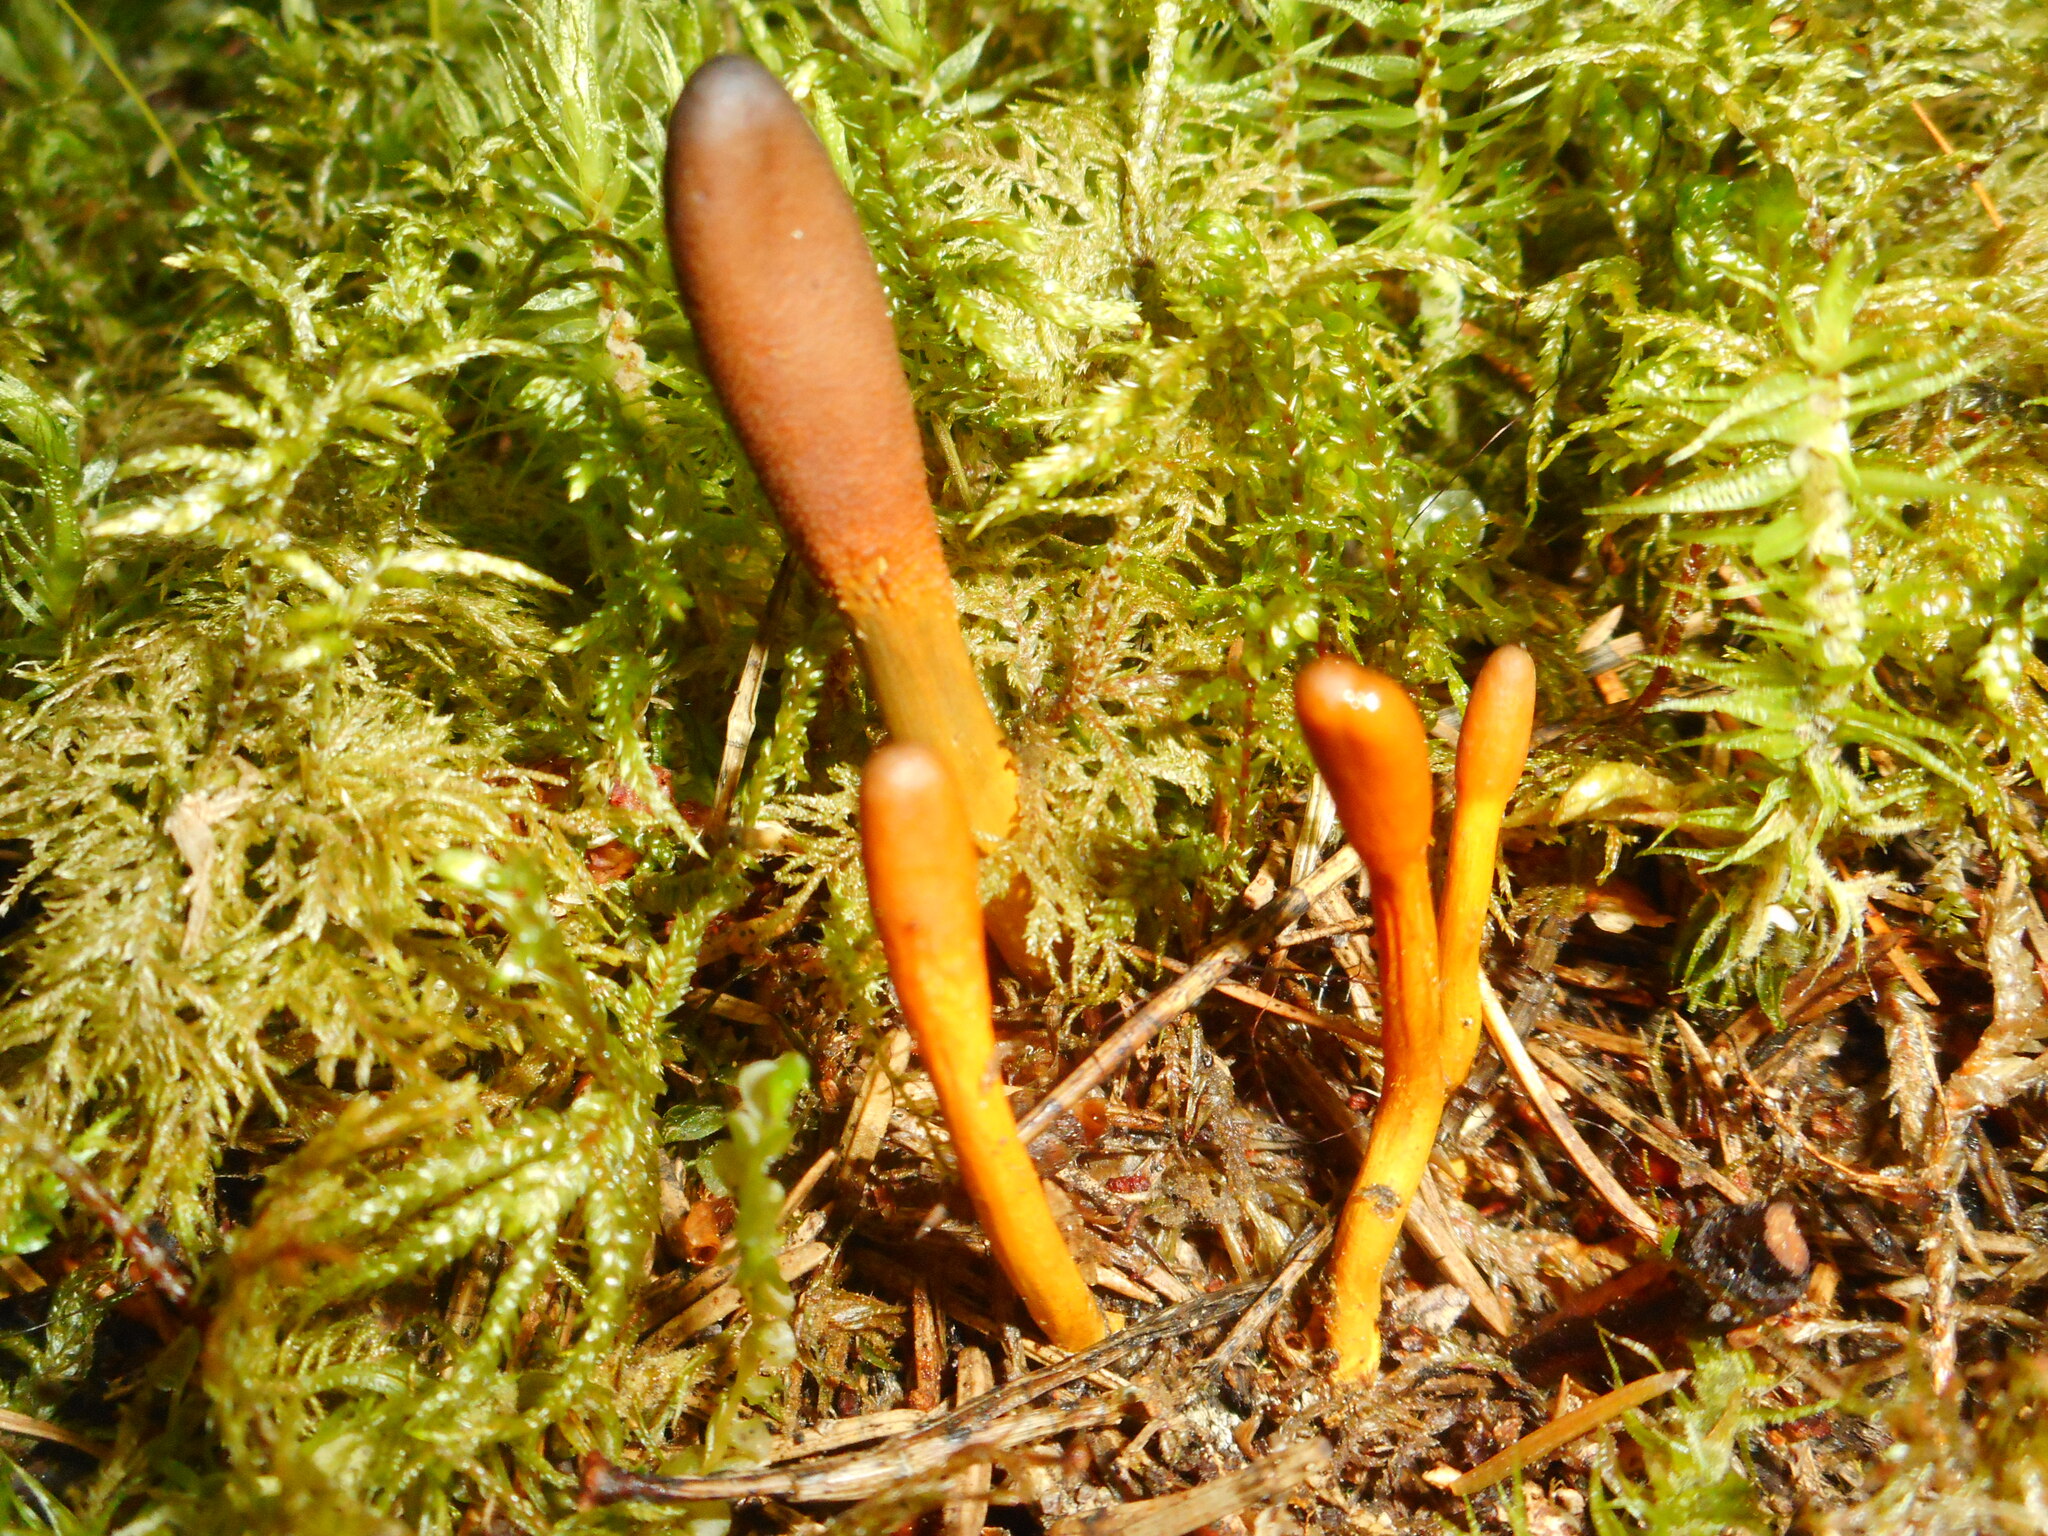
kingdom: Fungi
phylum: Ascomycota
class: Sordariomycetes
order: Hypocreales
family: Ophiocordycipitaceae
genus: Tolypocladium
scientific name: Tolypocladium ophioglossoides
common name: Snaketongue truffleclub
